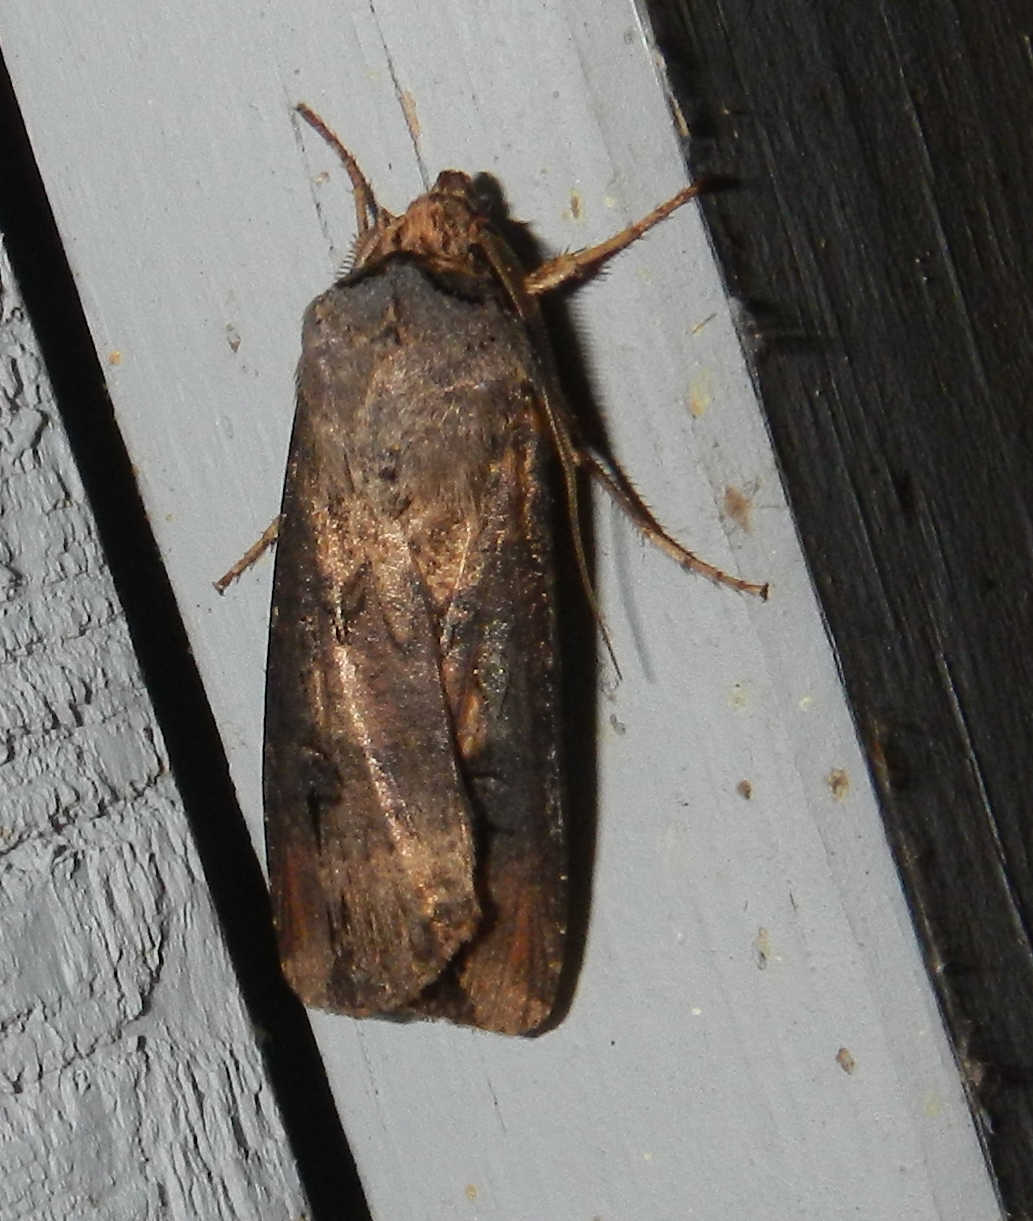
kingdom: Animalia
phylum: Arthropoda
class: Insecta
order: Lepidoptera
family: Noctuidae
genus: Agrotis
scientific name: Agrotis ipsilon
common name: Dark sword-grass
